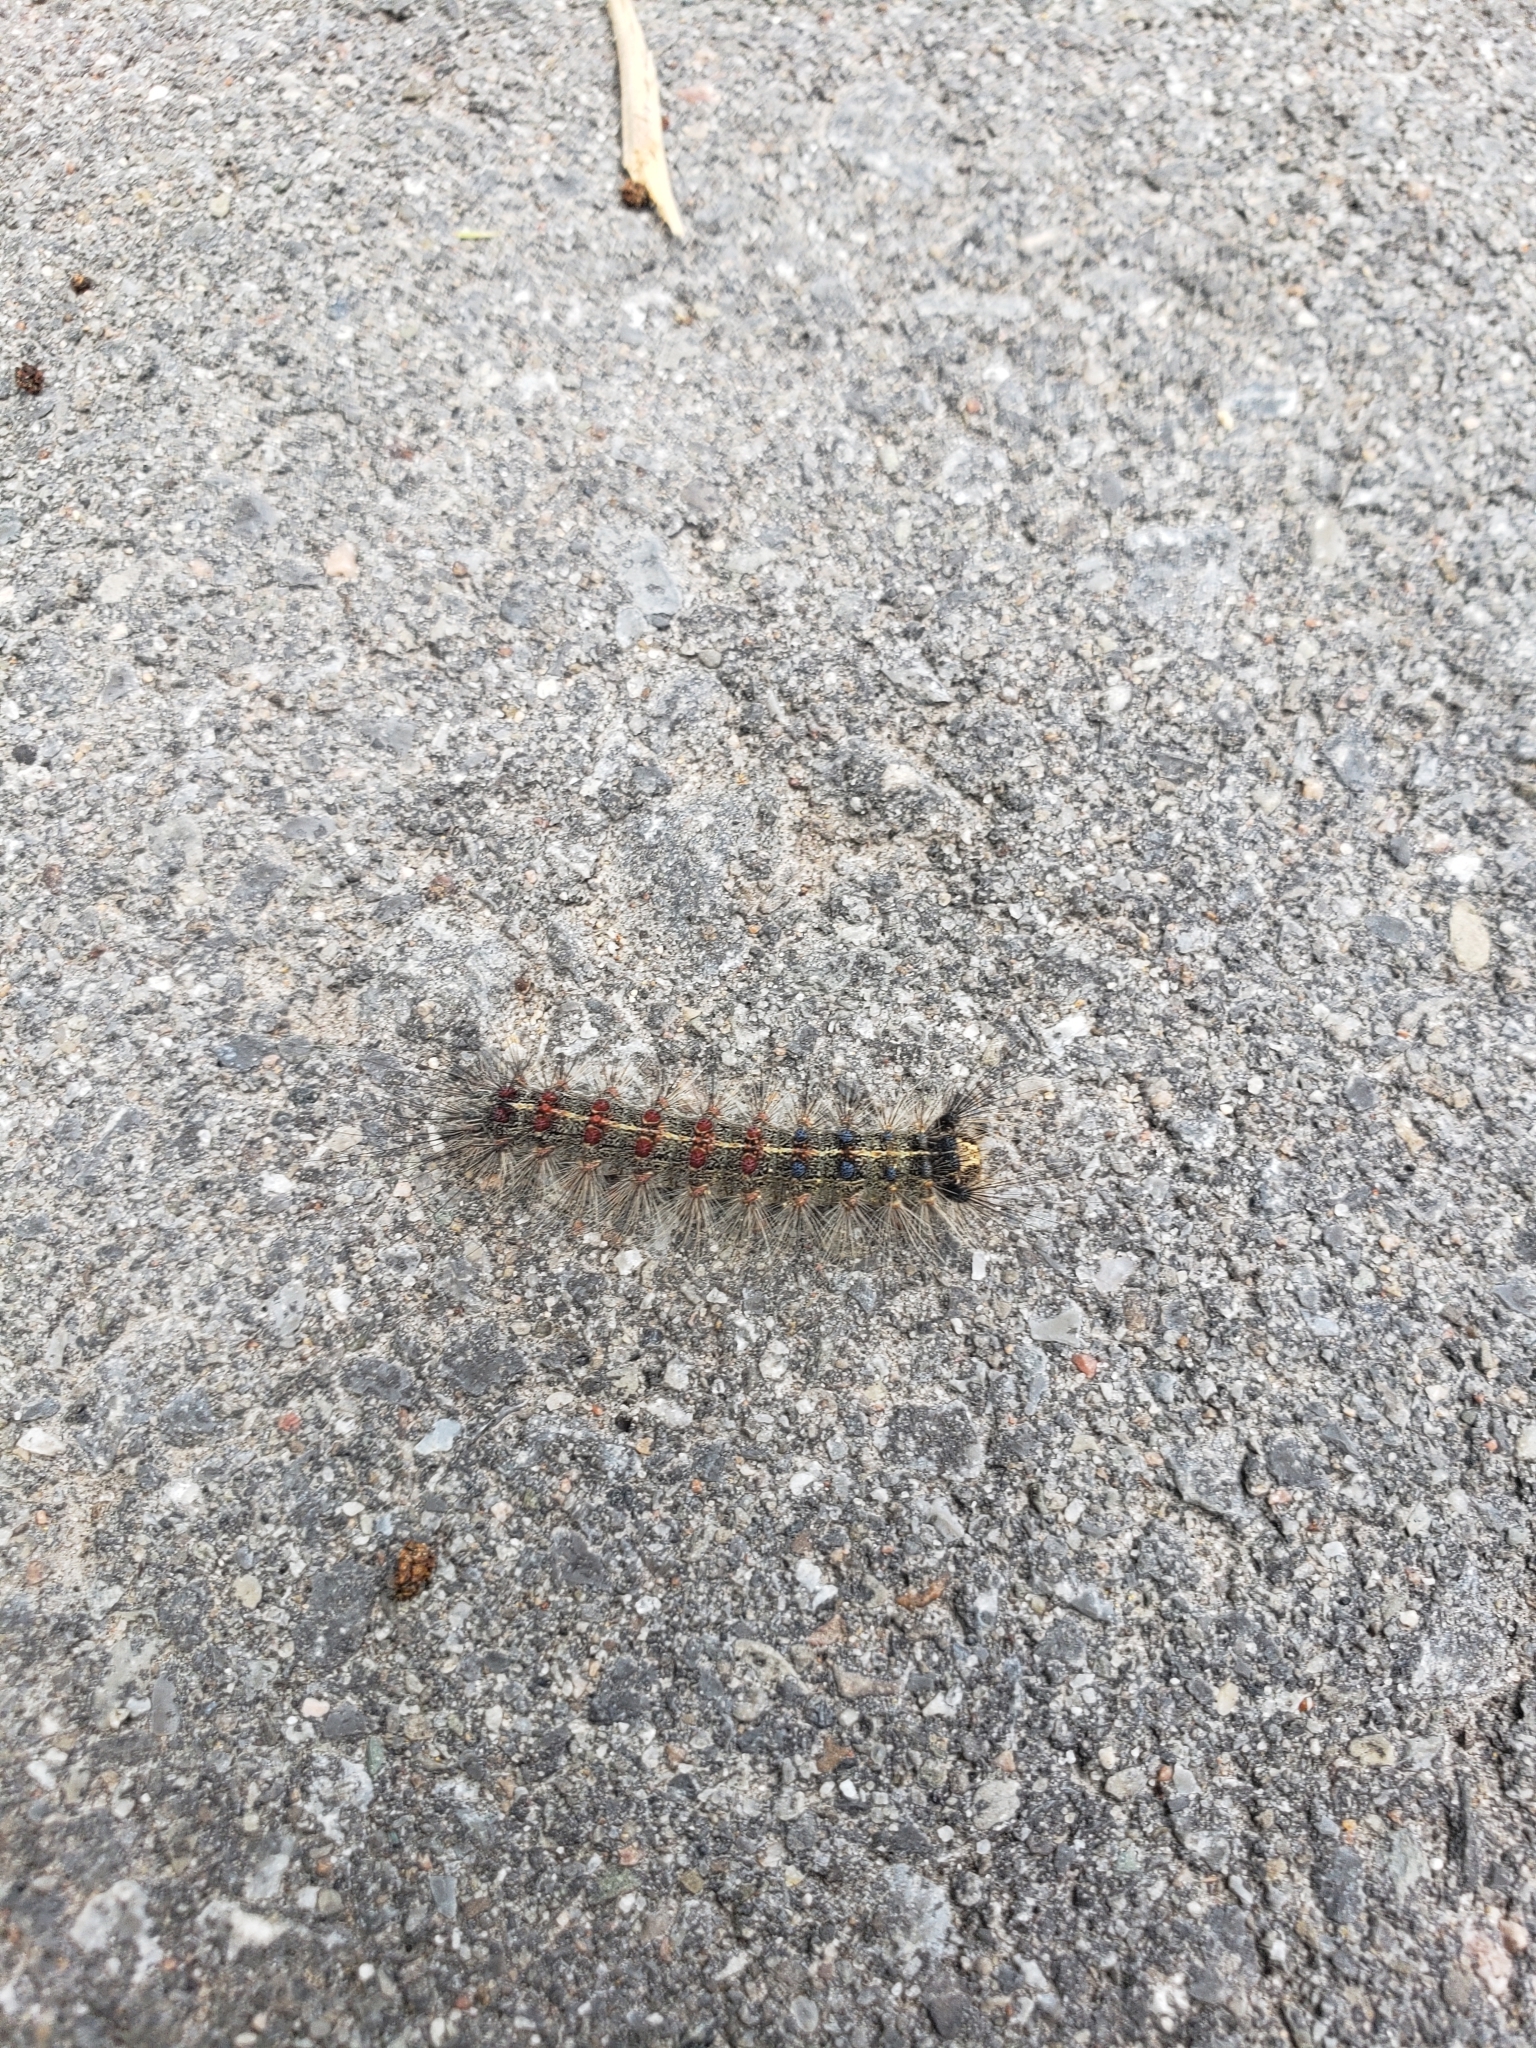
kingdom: Animalia
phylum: Arthropoda
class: Insecta
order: Lepidoptera
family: Erebidae
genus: Lymantria
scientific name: Lymantria dispar
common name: Gypsy moth
